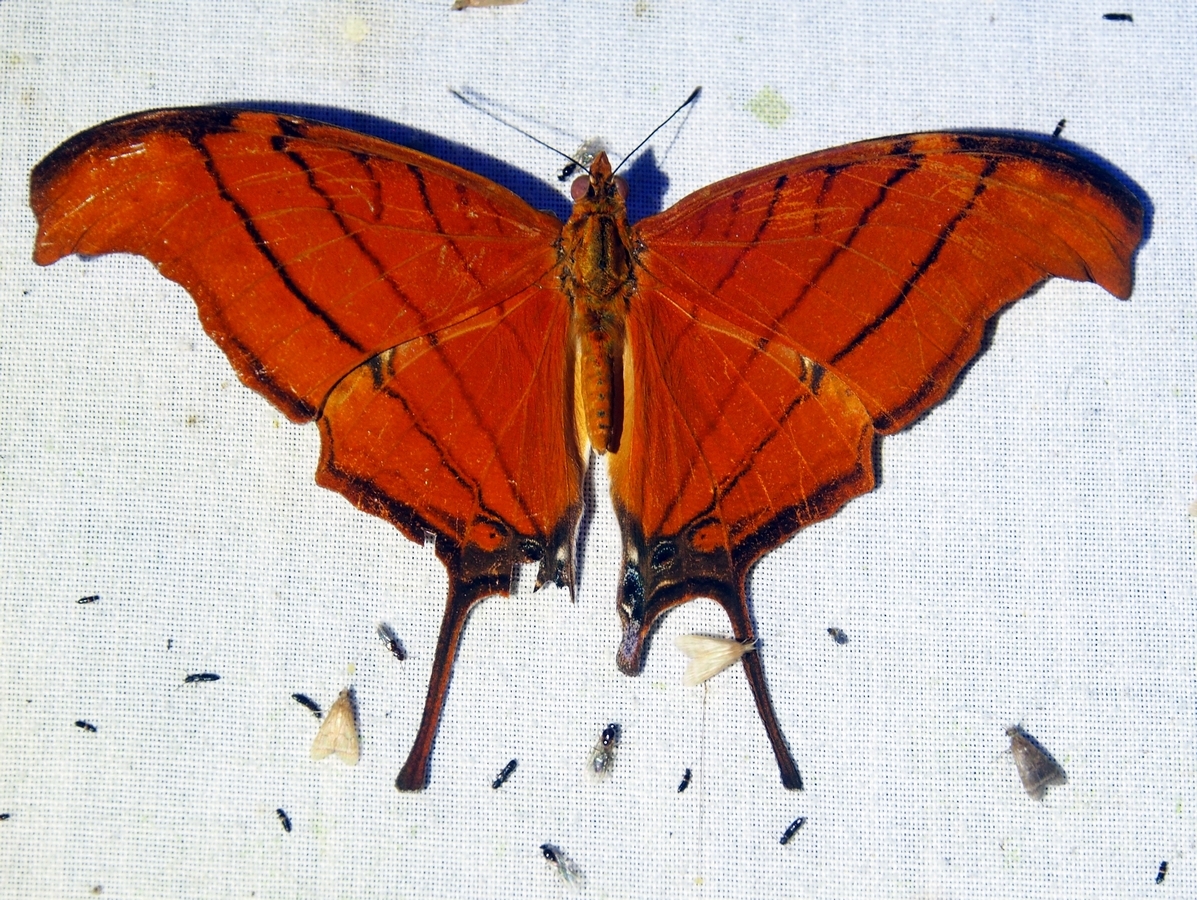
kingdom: Animalia
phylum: Arthropoda
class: Insecta
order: Lepidoptera
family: Nymphalidae
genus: Marpesia
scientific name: Marpesia petreus
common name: Red dagger wing
